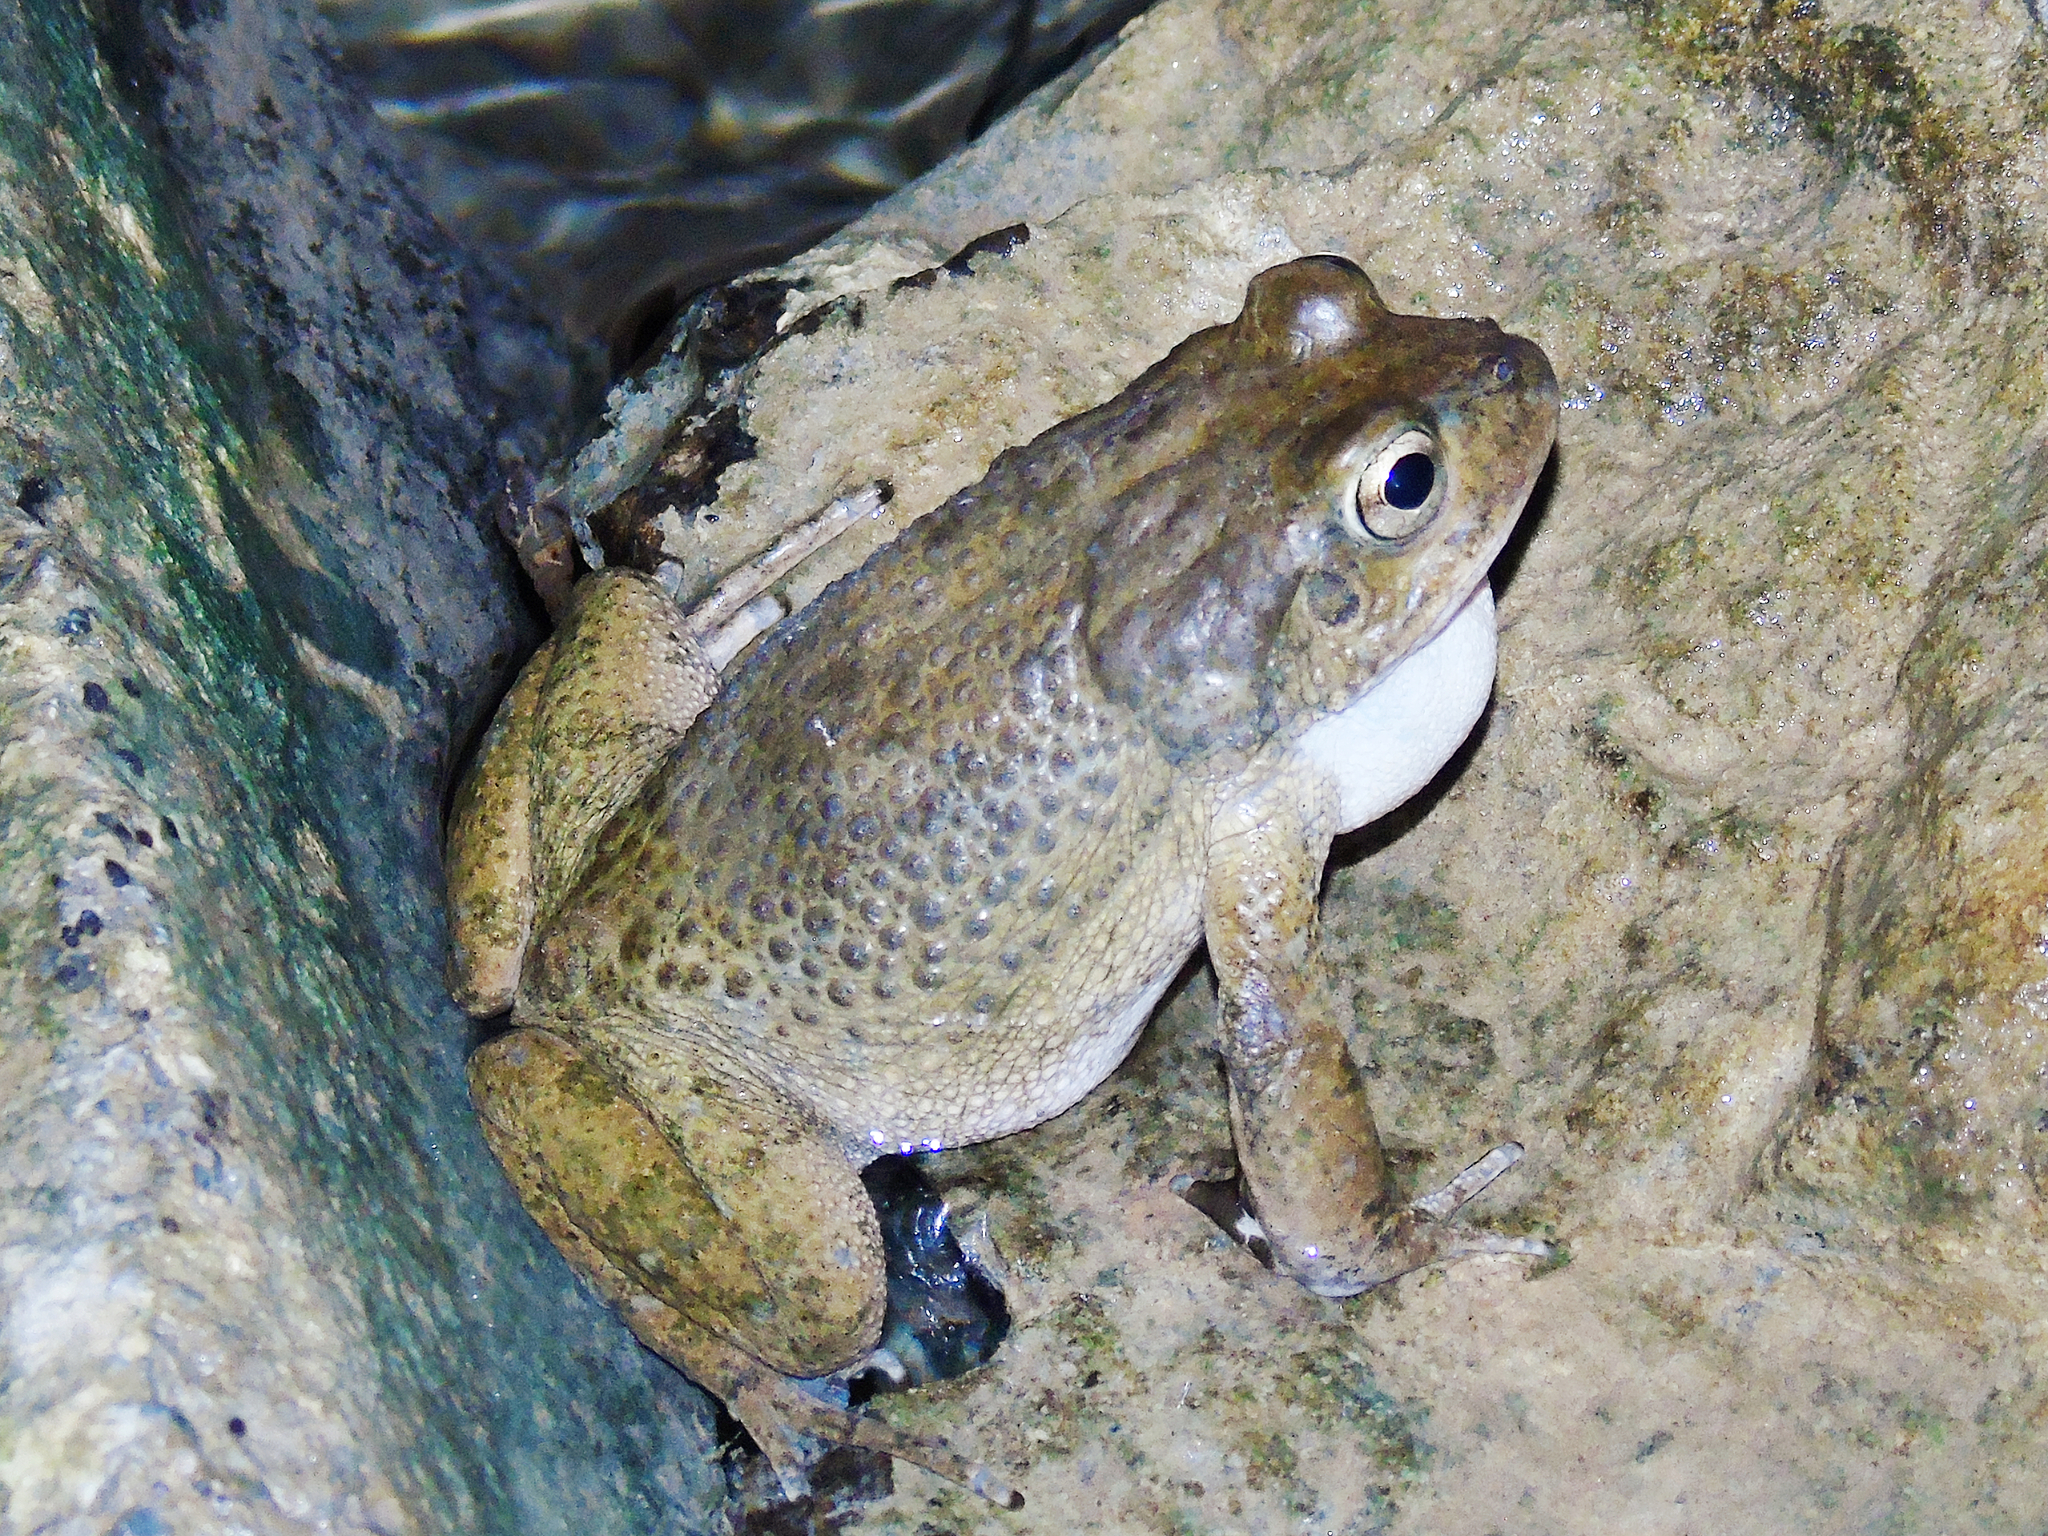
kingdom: Animalia
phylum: Chordata
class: Amphibia
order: Anura
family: Bufonidae
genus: Sclerophrys
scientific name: Sclerophrys arabica
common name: Arabian toad
